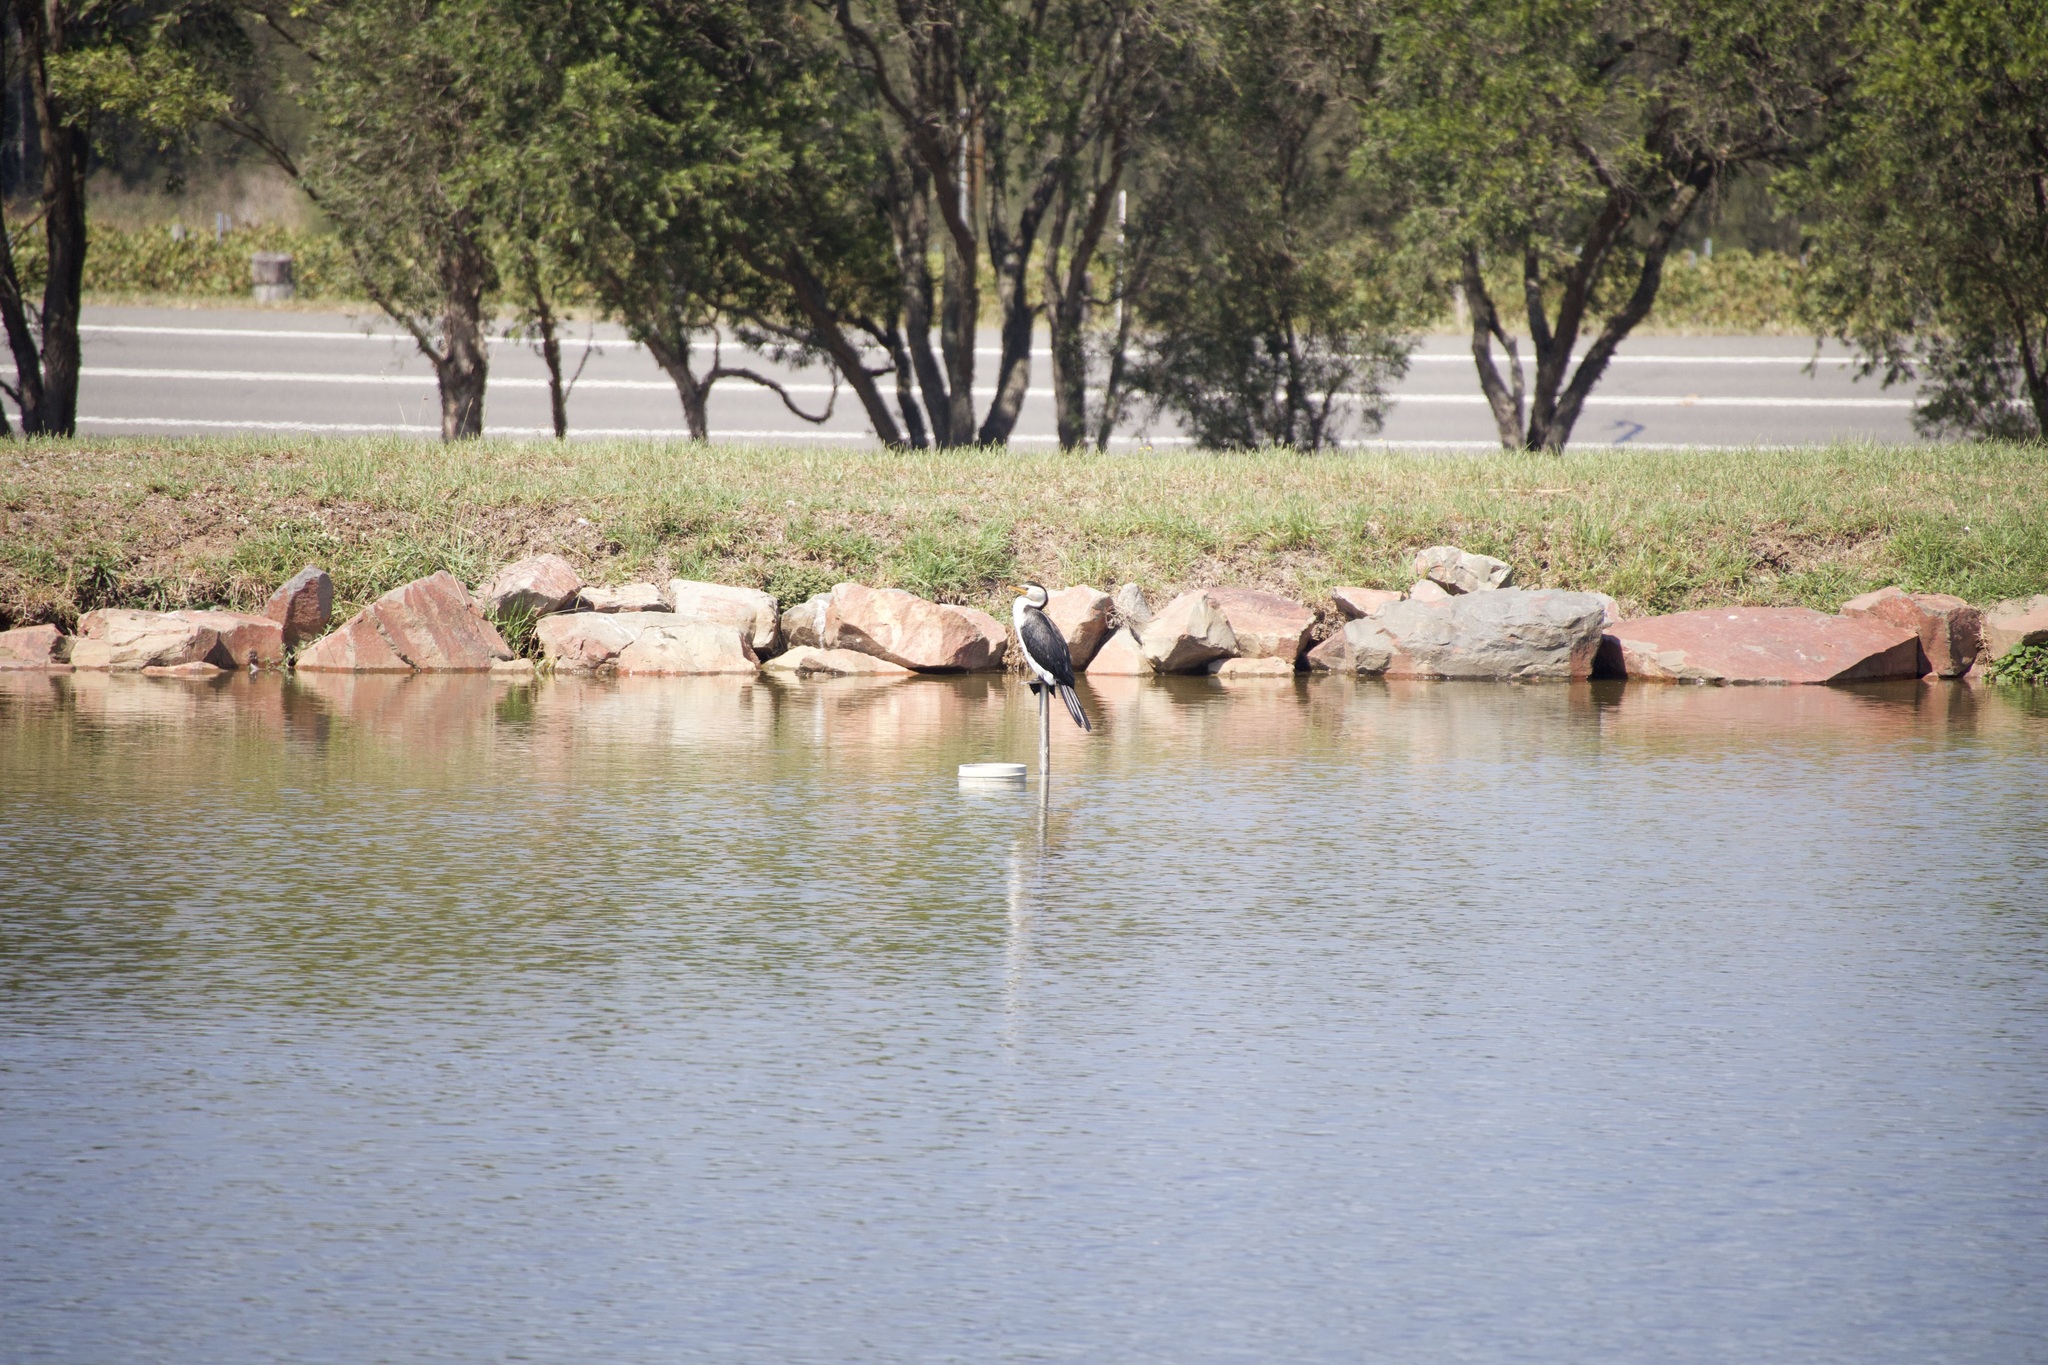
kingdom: Animalia
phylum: Chordata
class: Aves
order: Suliformes
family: Phalacrocoracidae
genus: Microcarbo
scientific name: Microcarbo melanoleucos
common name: Little pied cormorant
